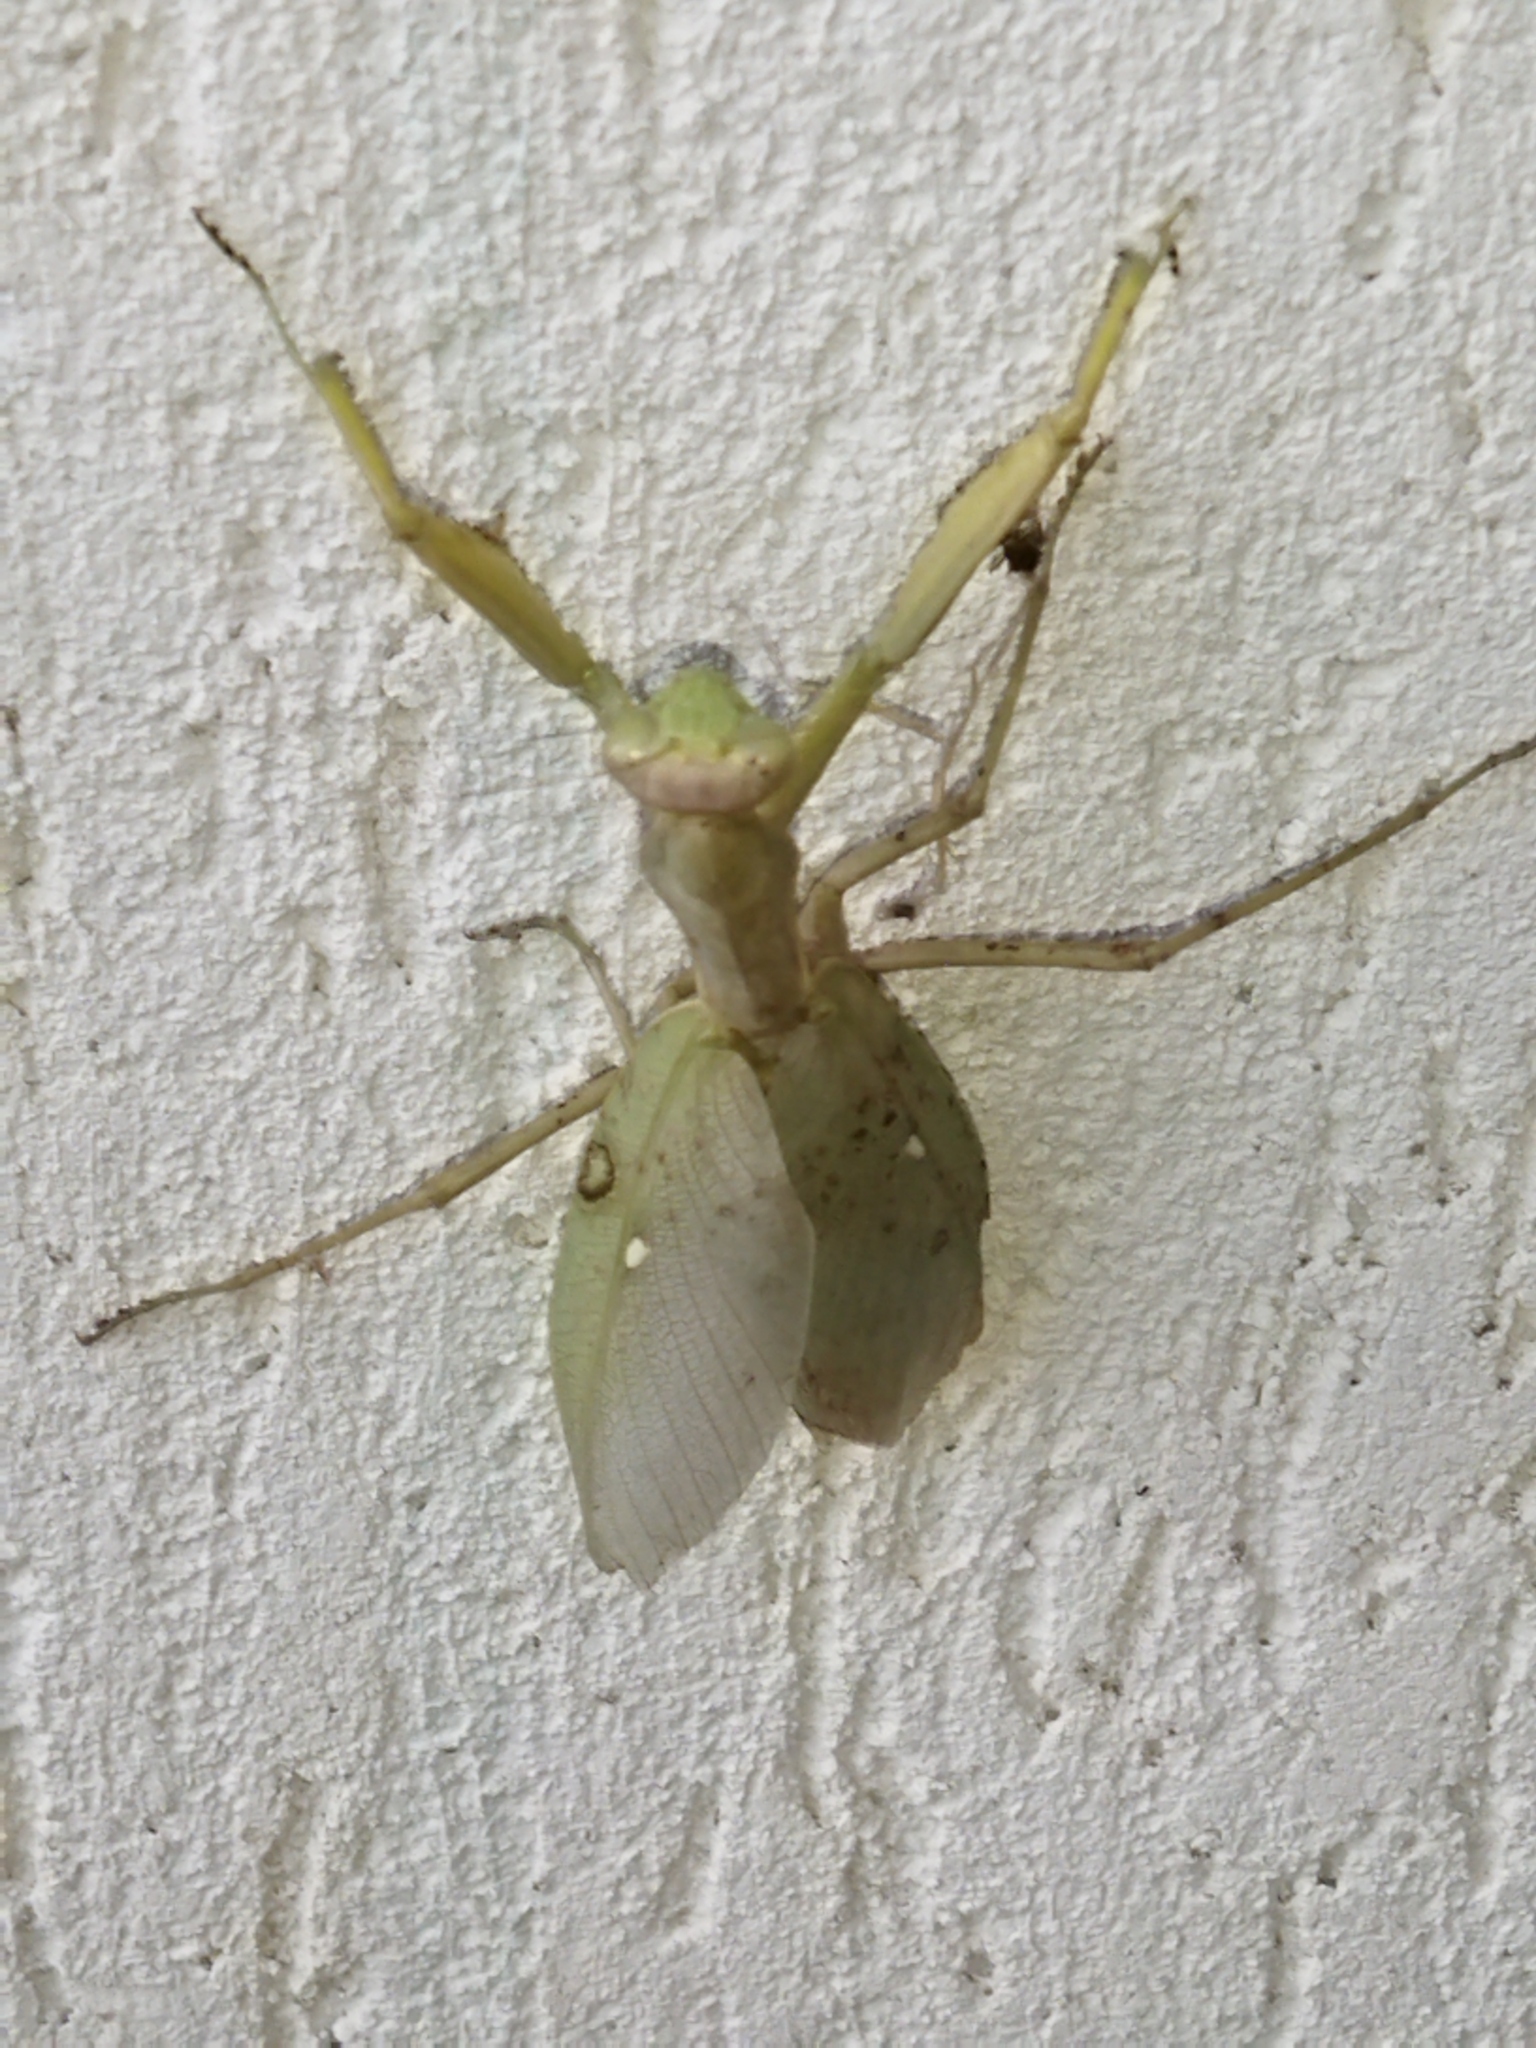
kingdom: Animalia
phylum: Arthropoda
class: Insecta
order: Mantodea
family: Mantidae
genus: Hierodula
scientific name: Hierodula transcaucasica
